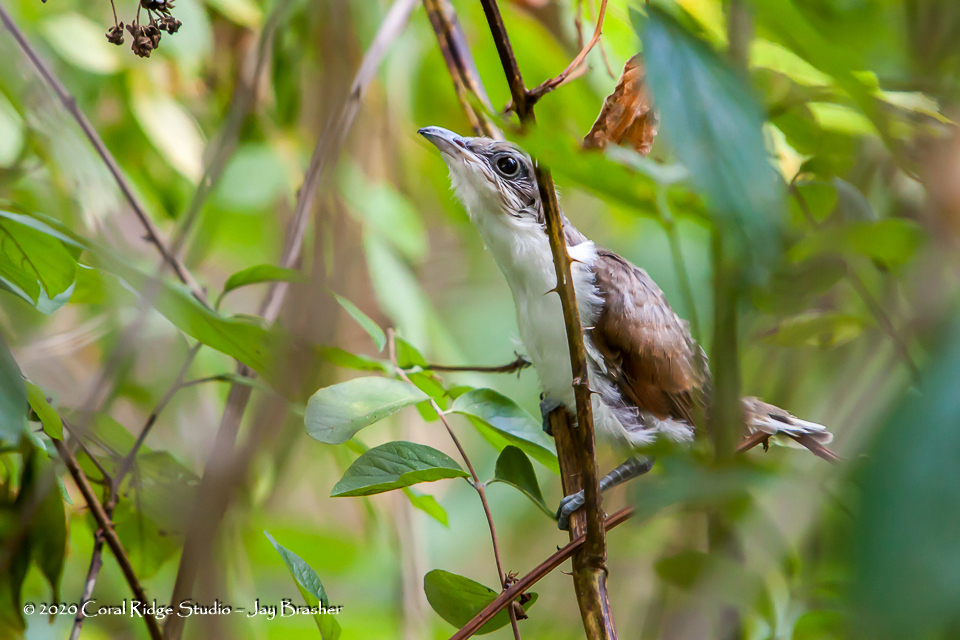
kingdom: Animalia
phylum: Chordata
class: Aves
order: Cuculiformes
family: Cuculidae
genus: Coccyzus
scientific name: Coccyzus americanus
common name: Yellow-billed cuckoo
